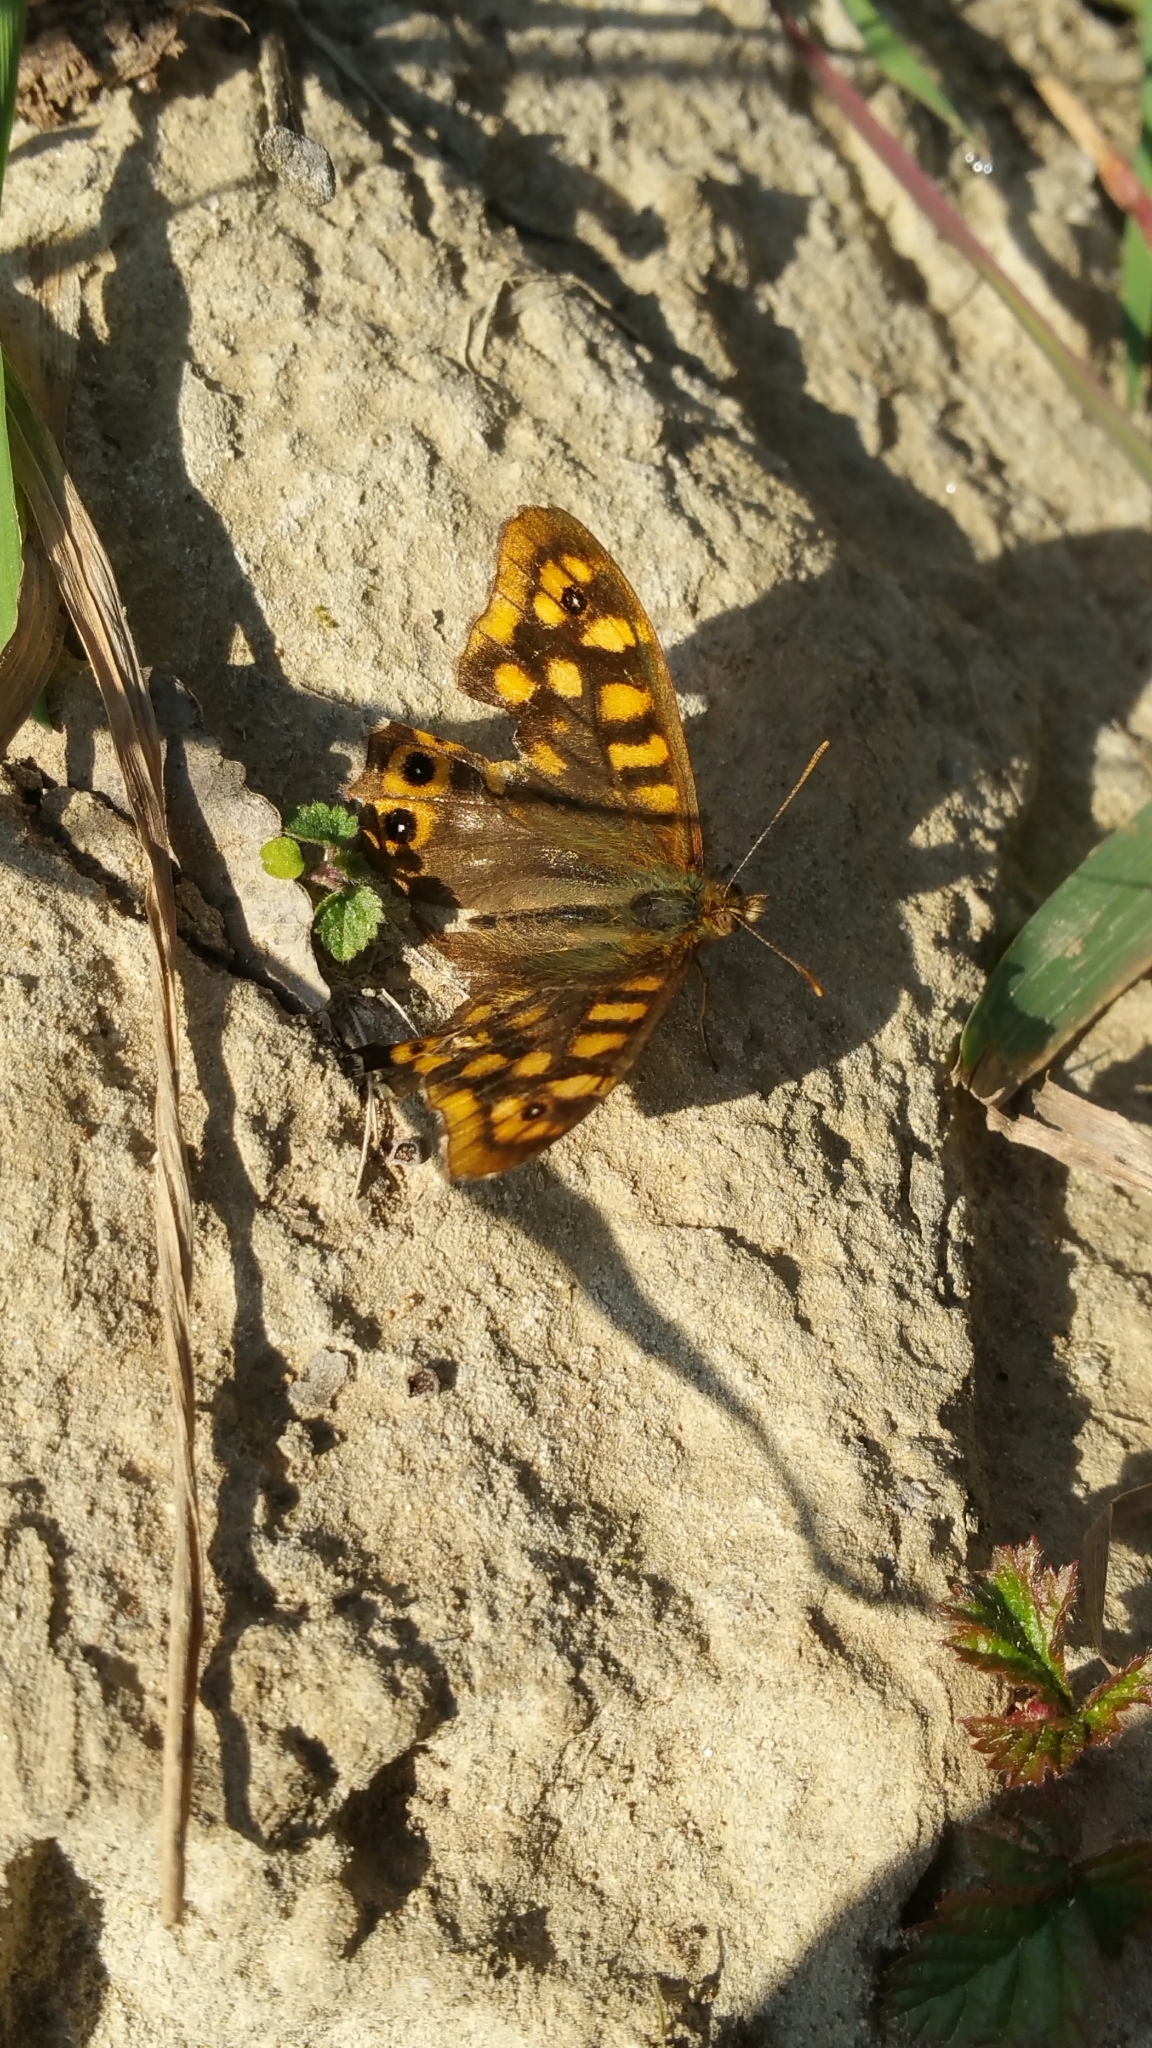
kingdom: Animalia
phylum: Arthropoda
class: Insecta
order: Lepidoptera
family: Nymphalidae
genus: Pararge
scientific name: Pararge aegeria
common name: Speckled wood
